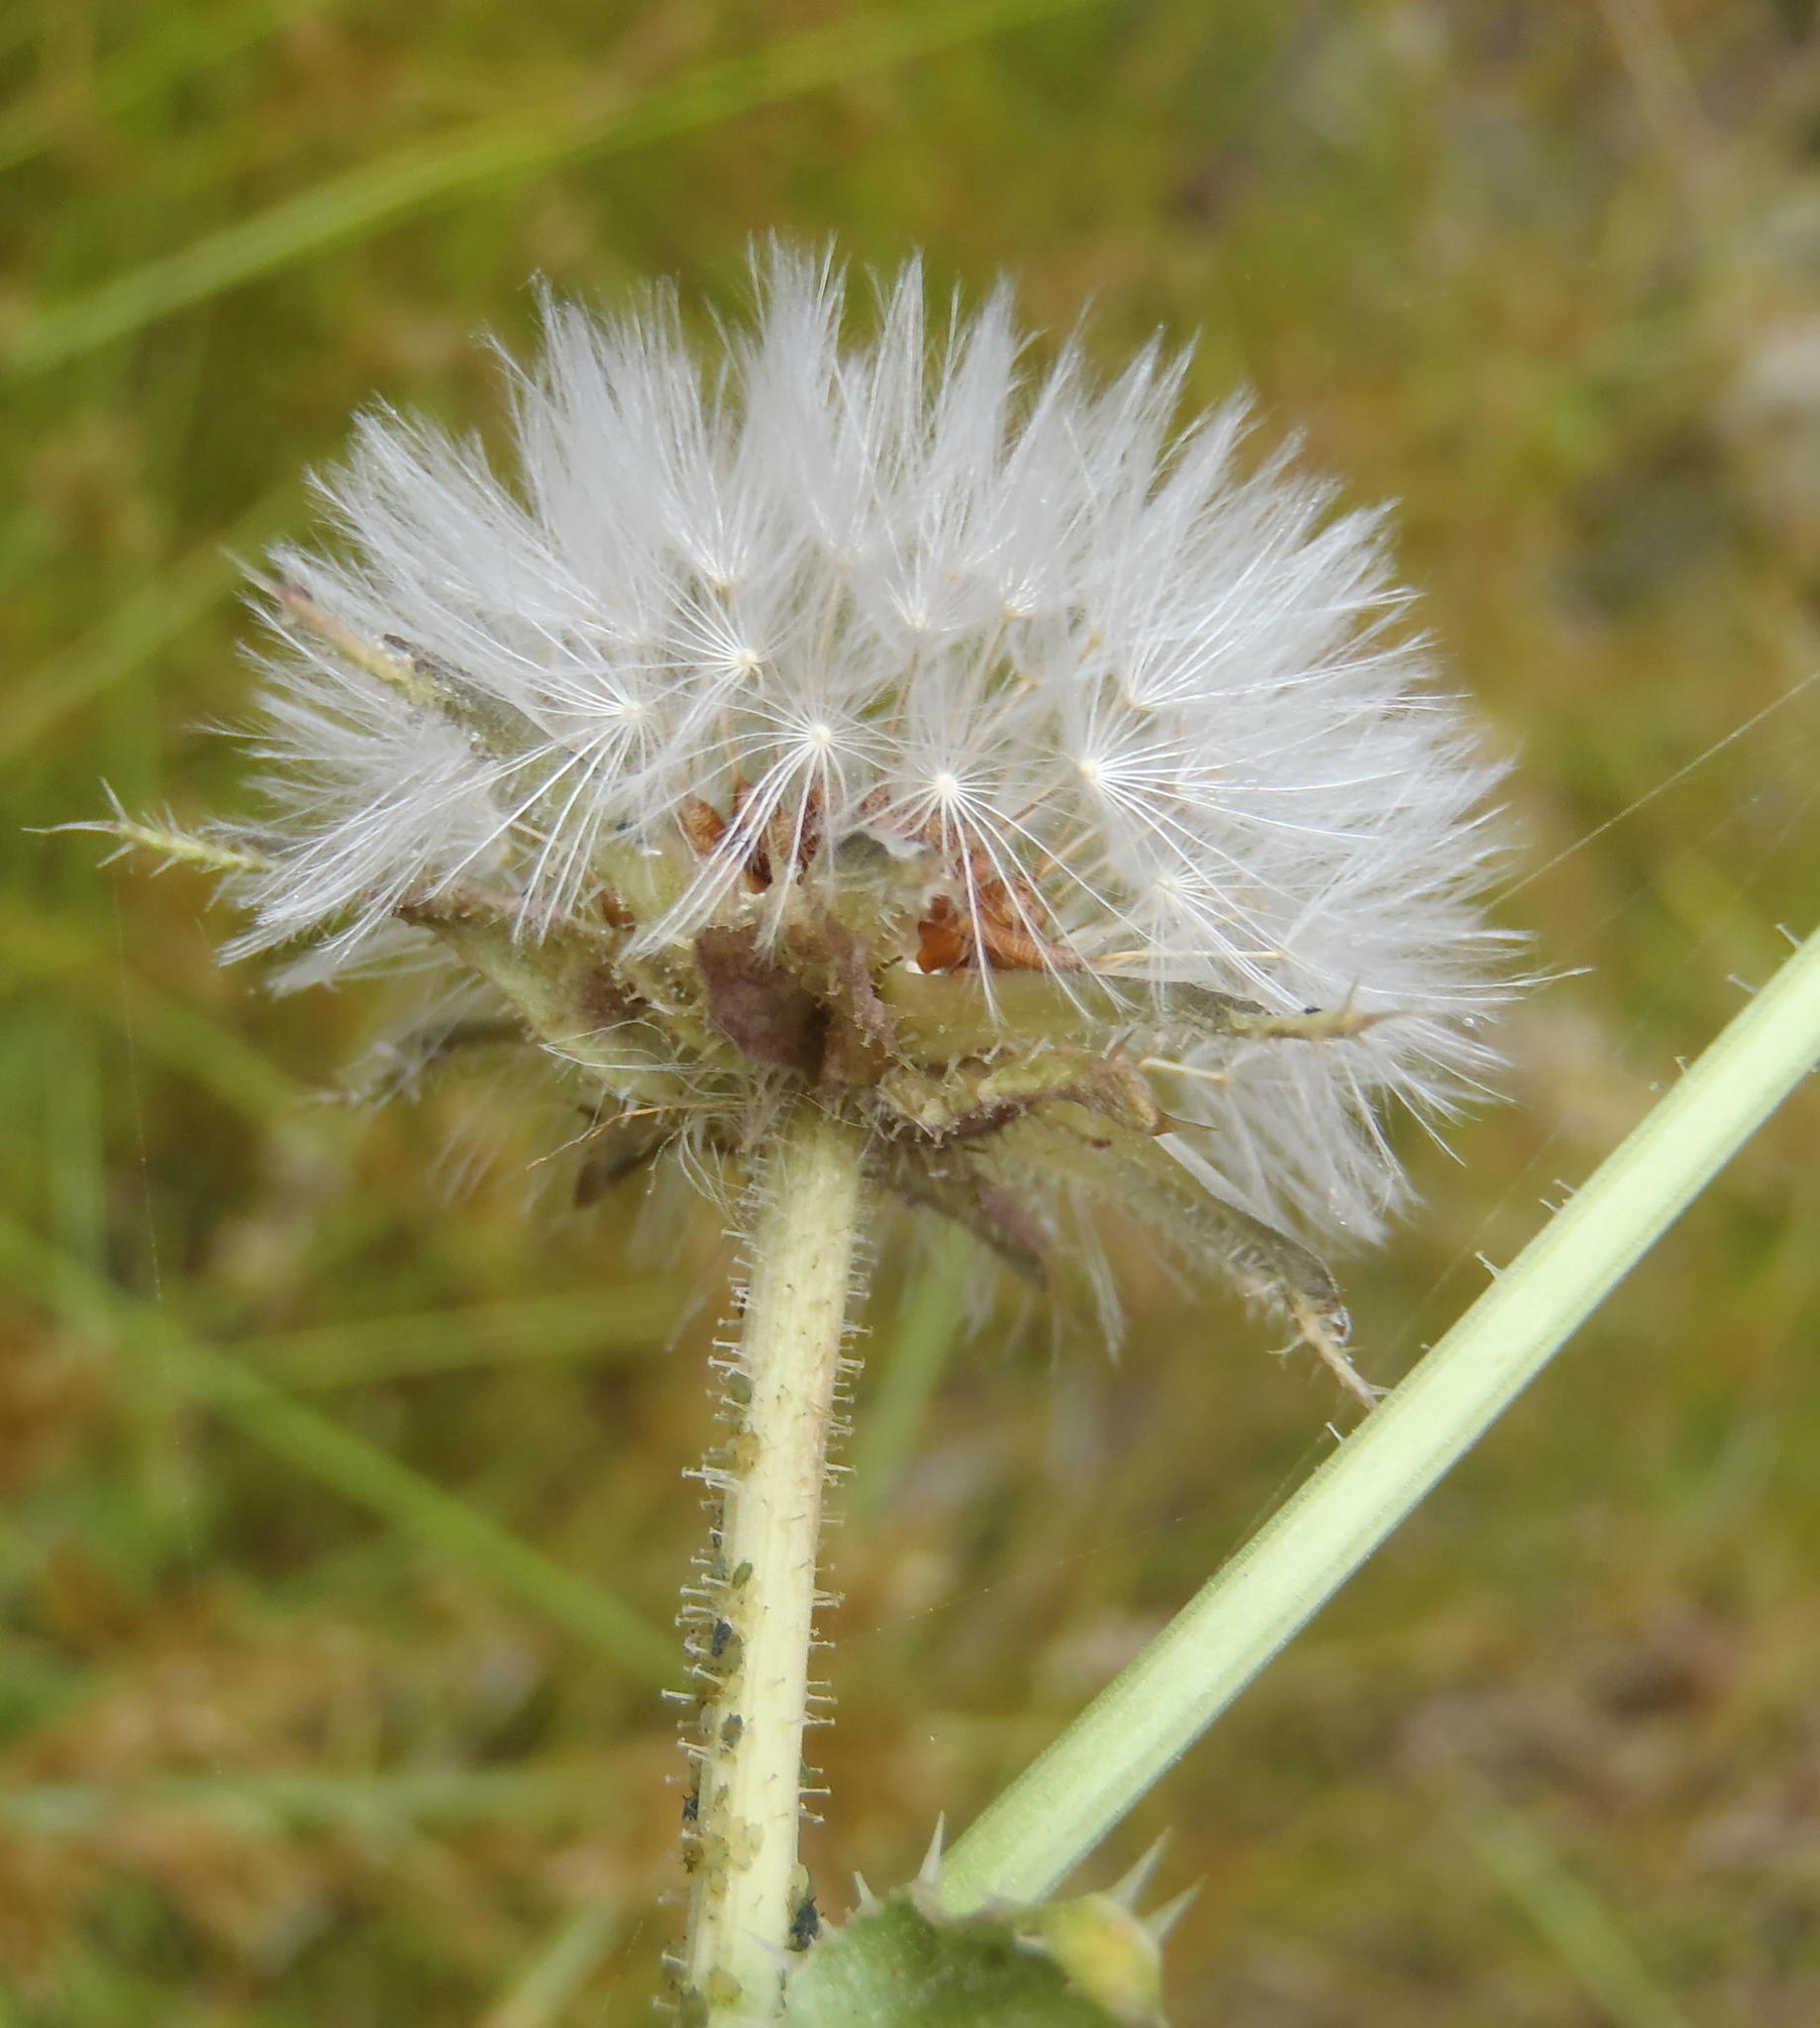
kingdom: Plantae
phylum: Tracheophyta
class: Magnoliopsida
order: Asterales
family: Asteraceae
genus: Helminthotheca
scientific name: Helminthotheca echioides
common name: Ox-tongue
